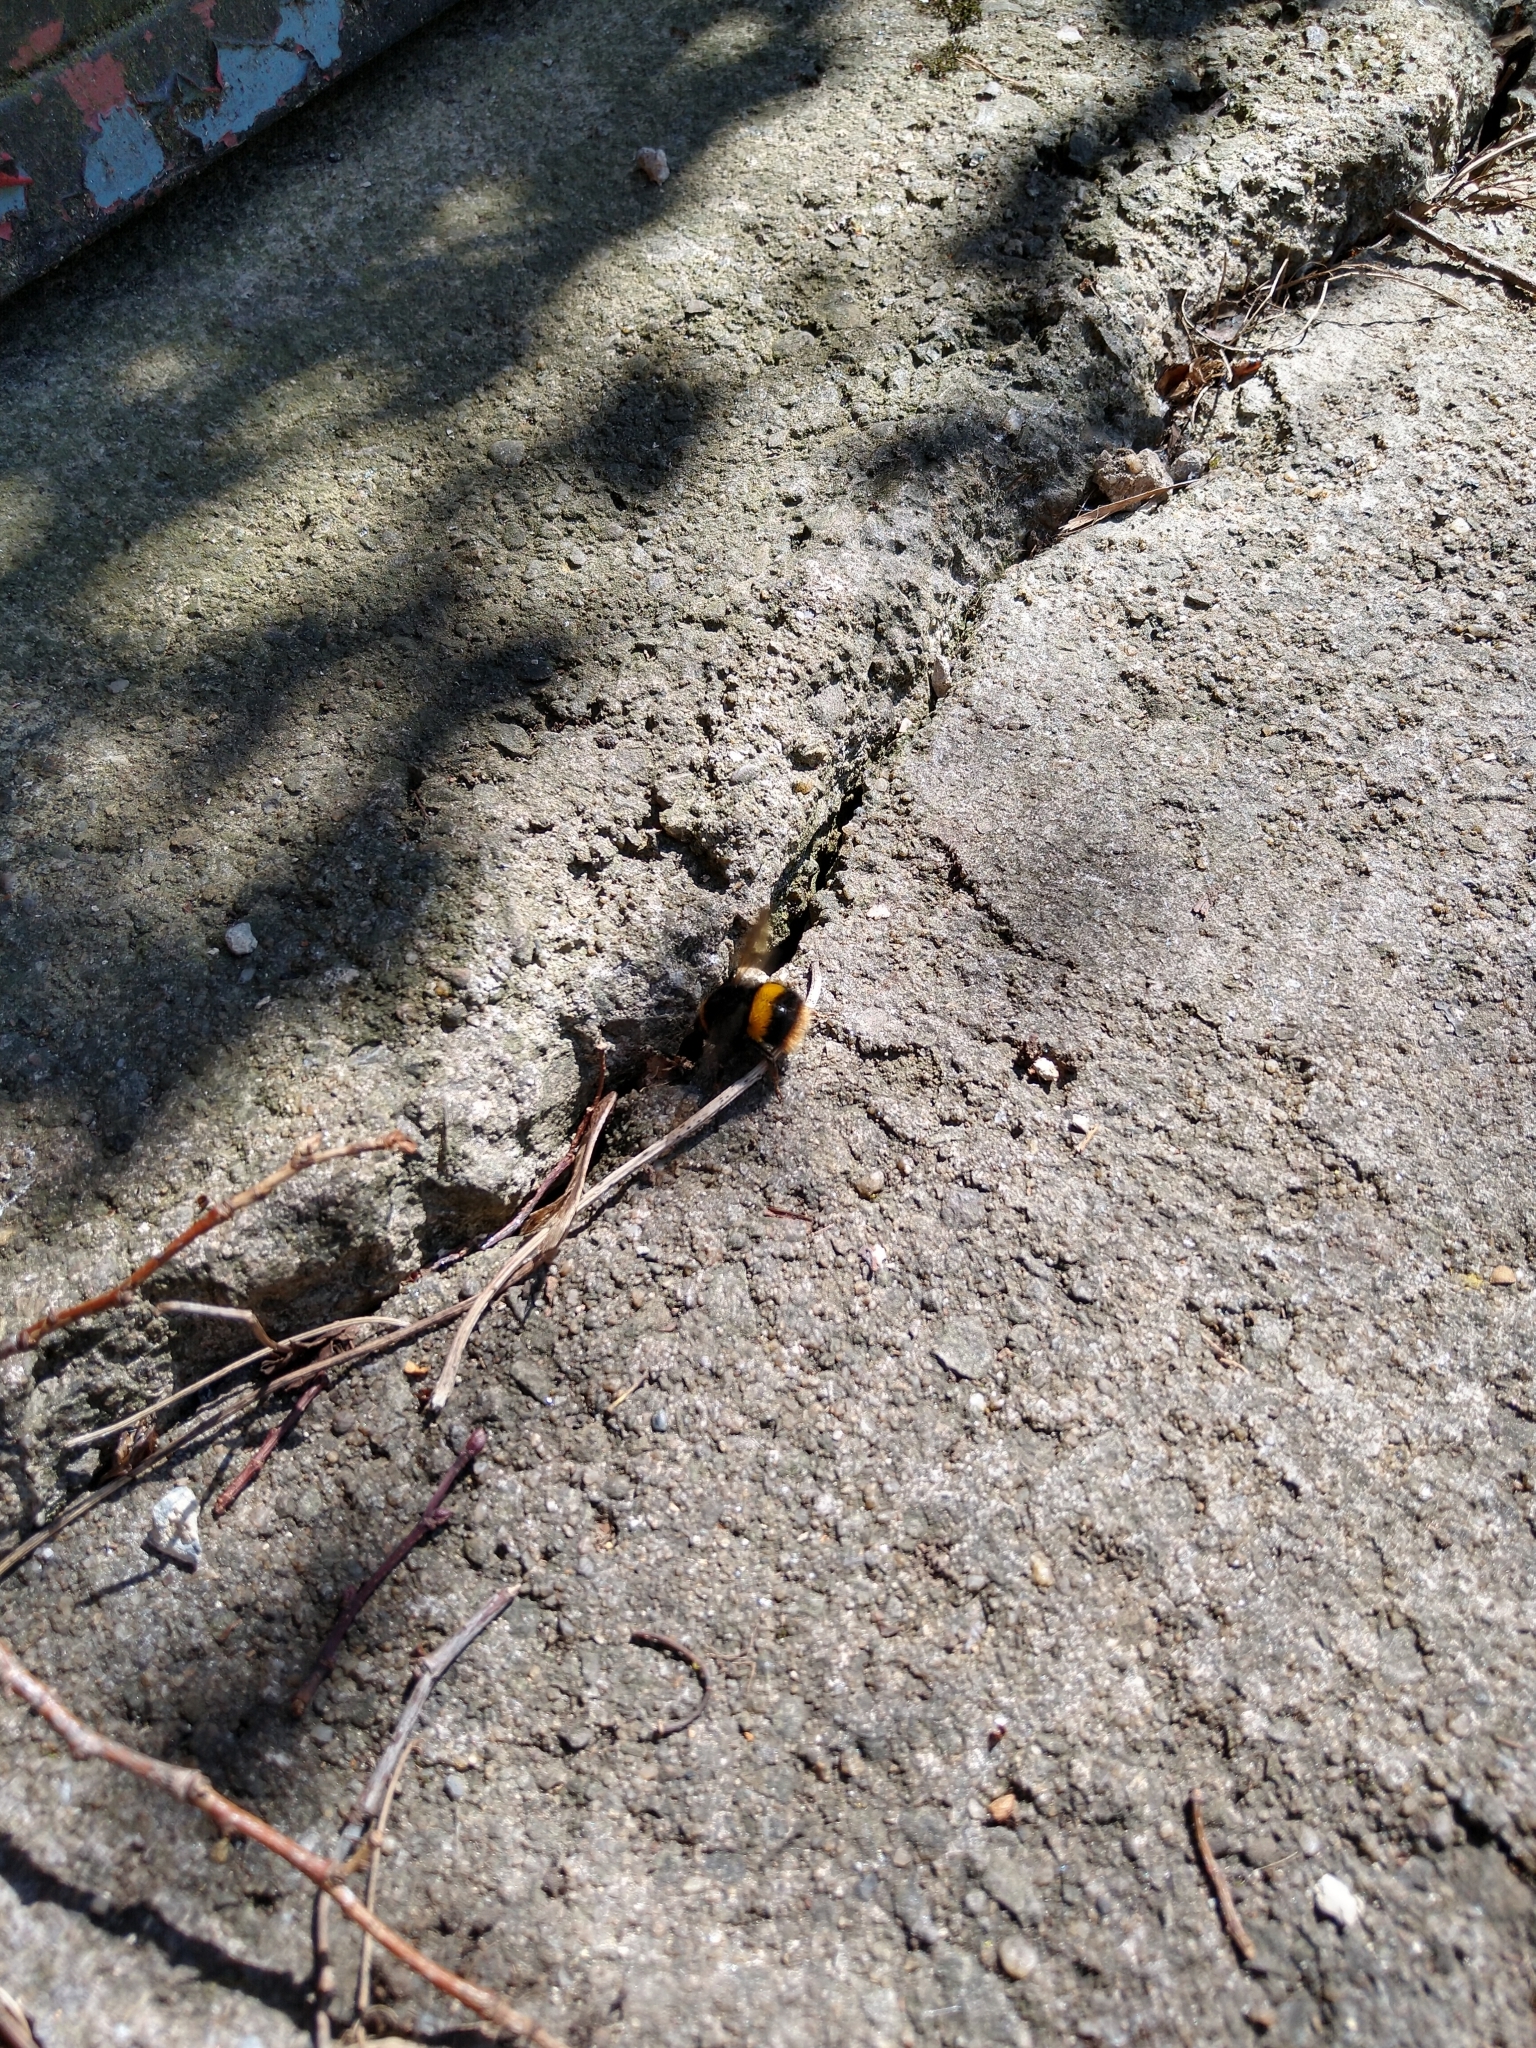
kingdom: Animalia
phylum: Arthropoda
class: Insecta
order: Hymenoptera
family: Apidae
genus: Bombus
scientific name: Bombus terrestris
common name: Buff-tailed bumblebee
